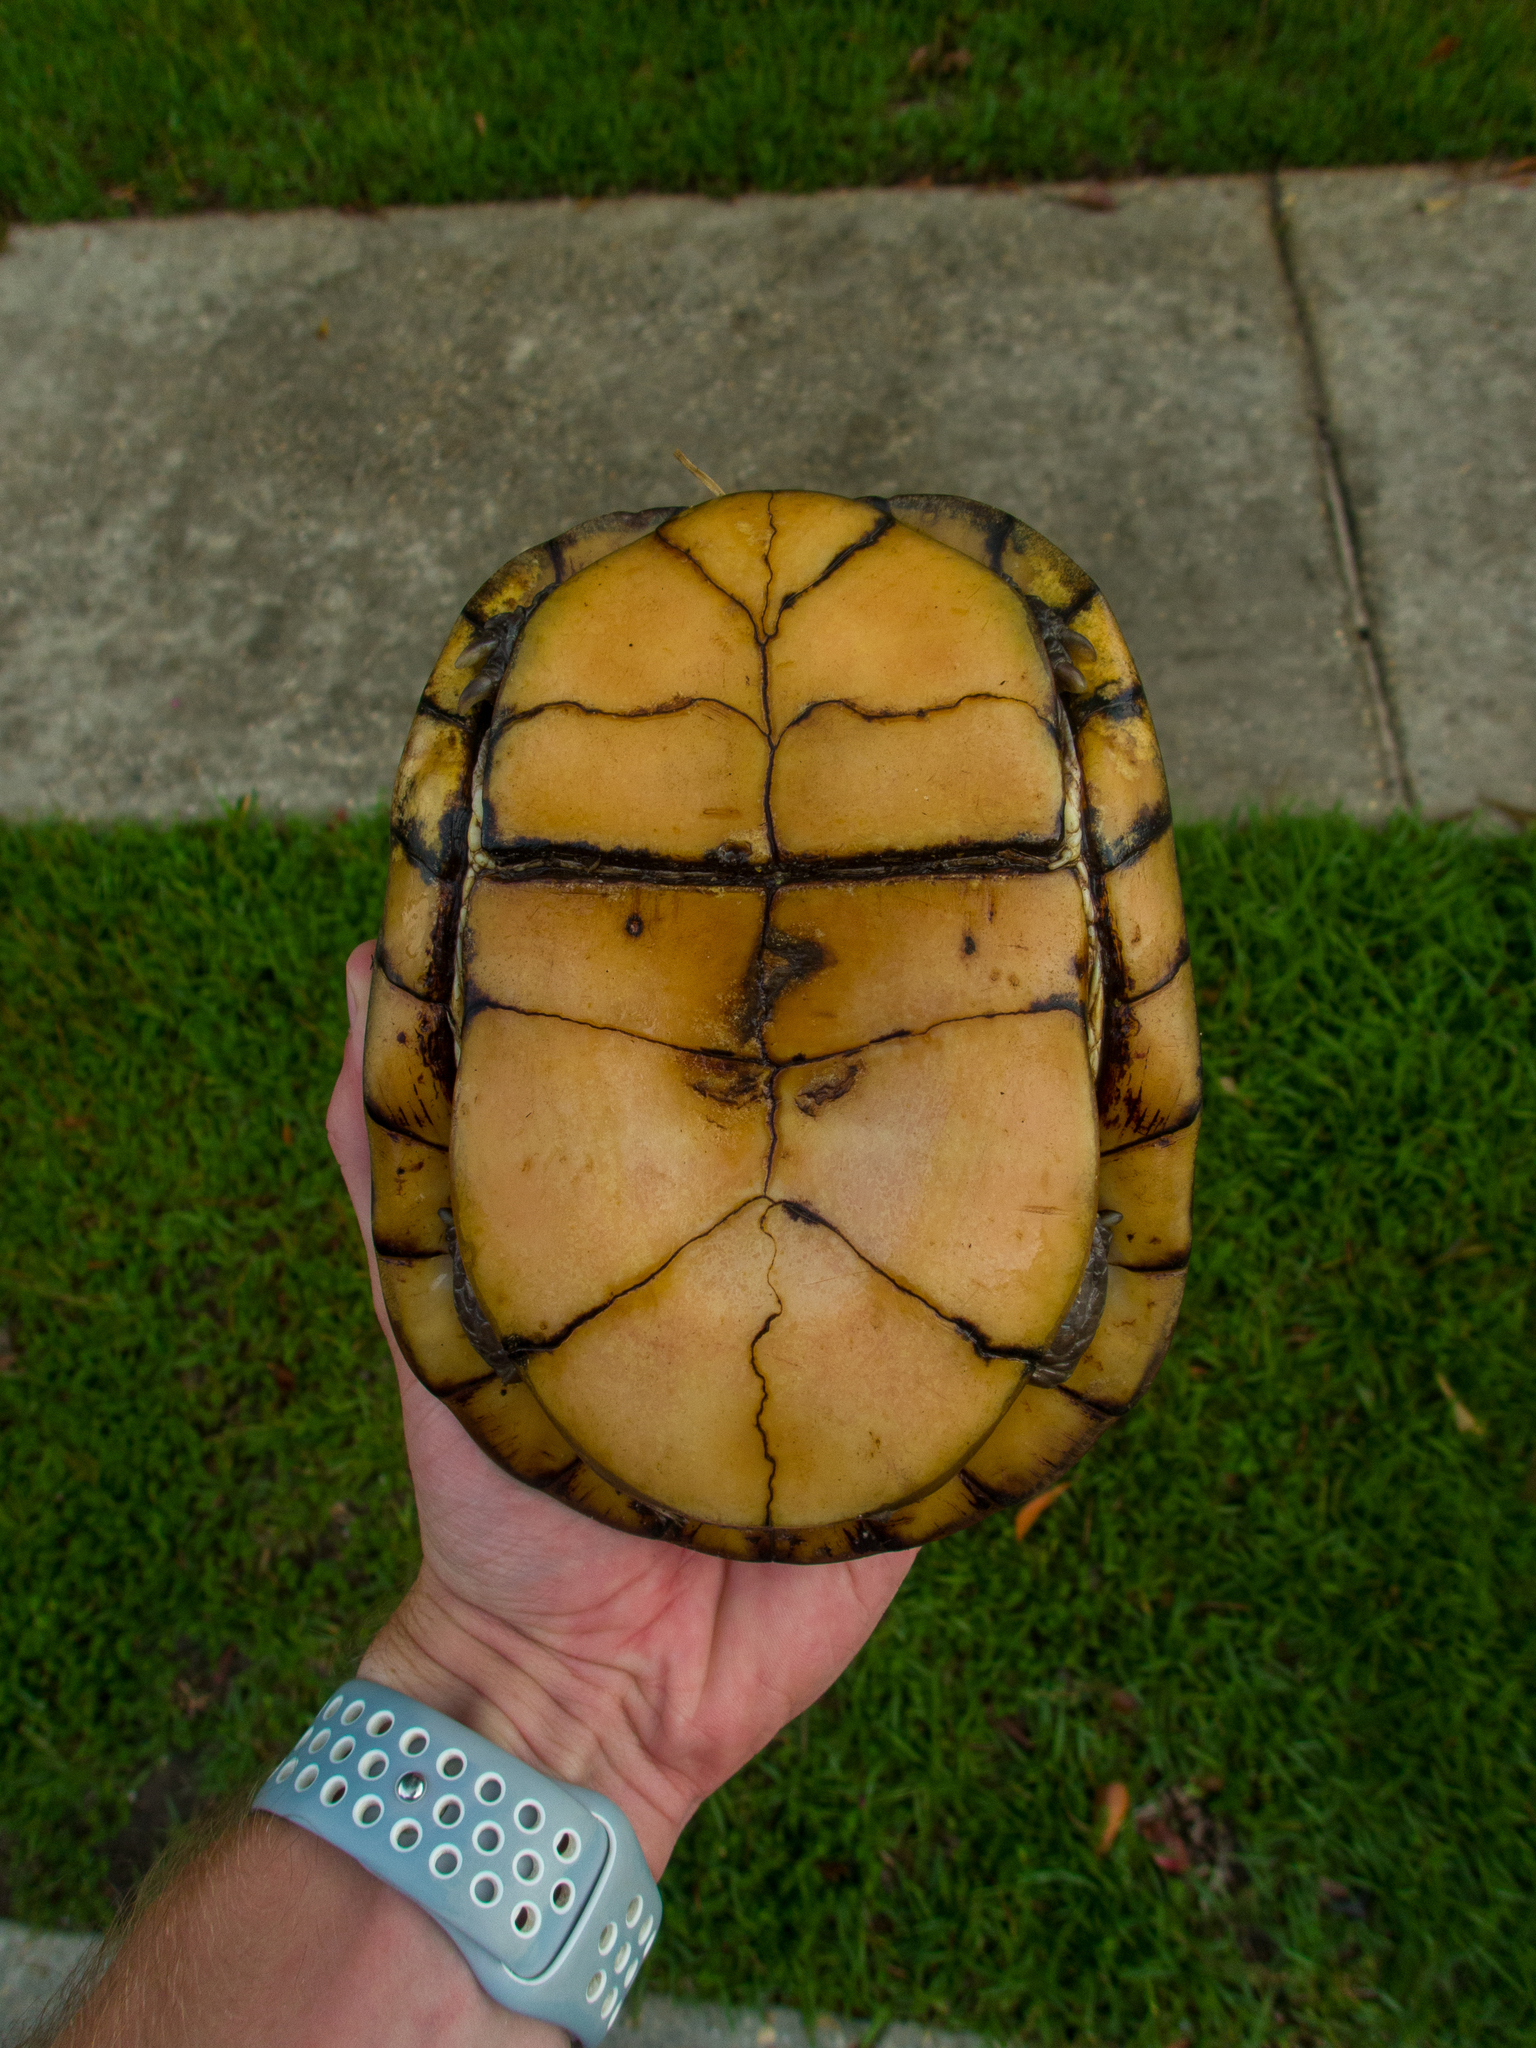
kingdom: Animalia
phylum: Chordata
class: Testudines
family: Emydidae
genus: Terrapene
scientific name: Terrapene carolina
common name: Common box turtle
